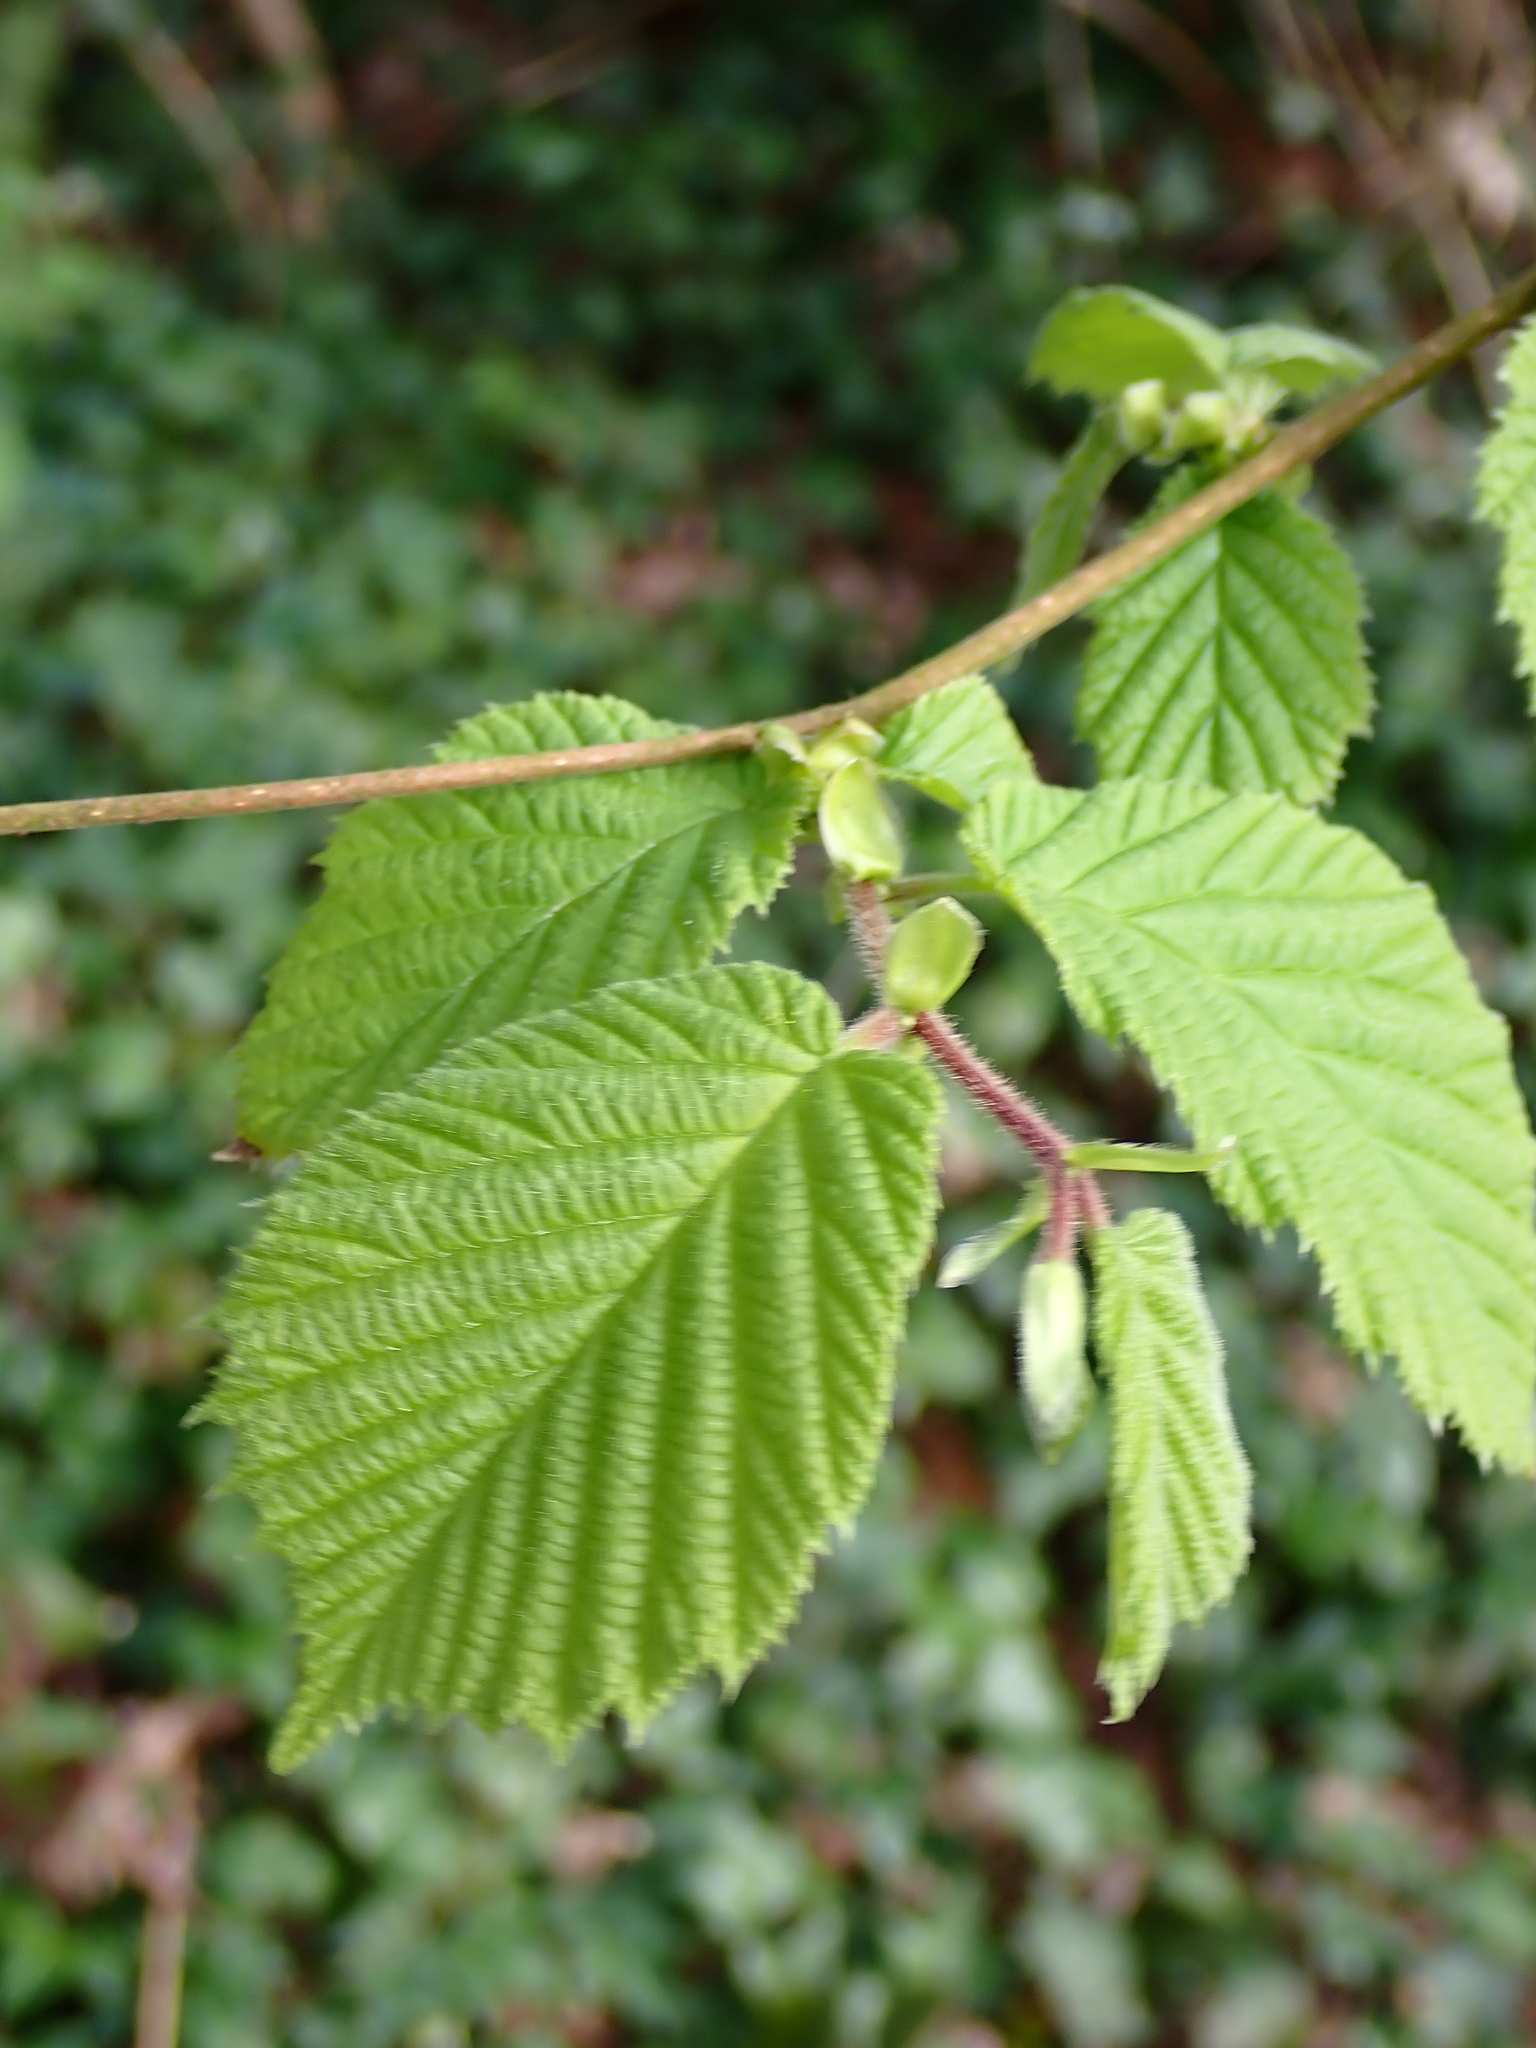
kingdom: Plantae
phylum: Tracheophyta
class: Magnoliopsida
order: Fagales
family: Betulaceae
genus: Corylus
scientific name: Corylus avellana
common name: European hazel
